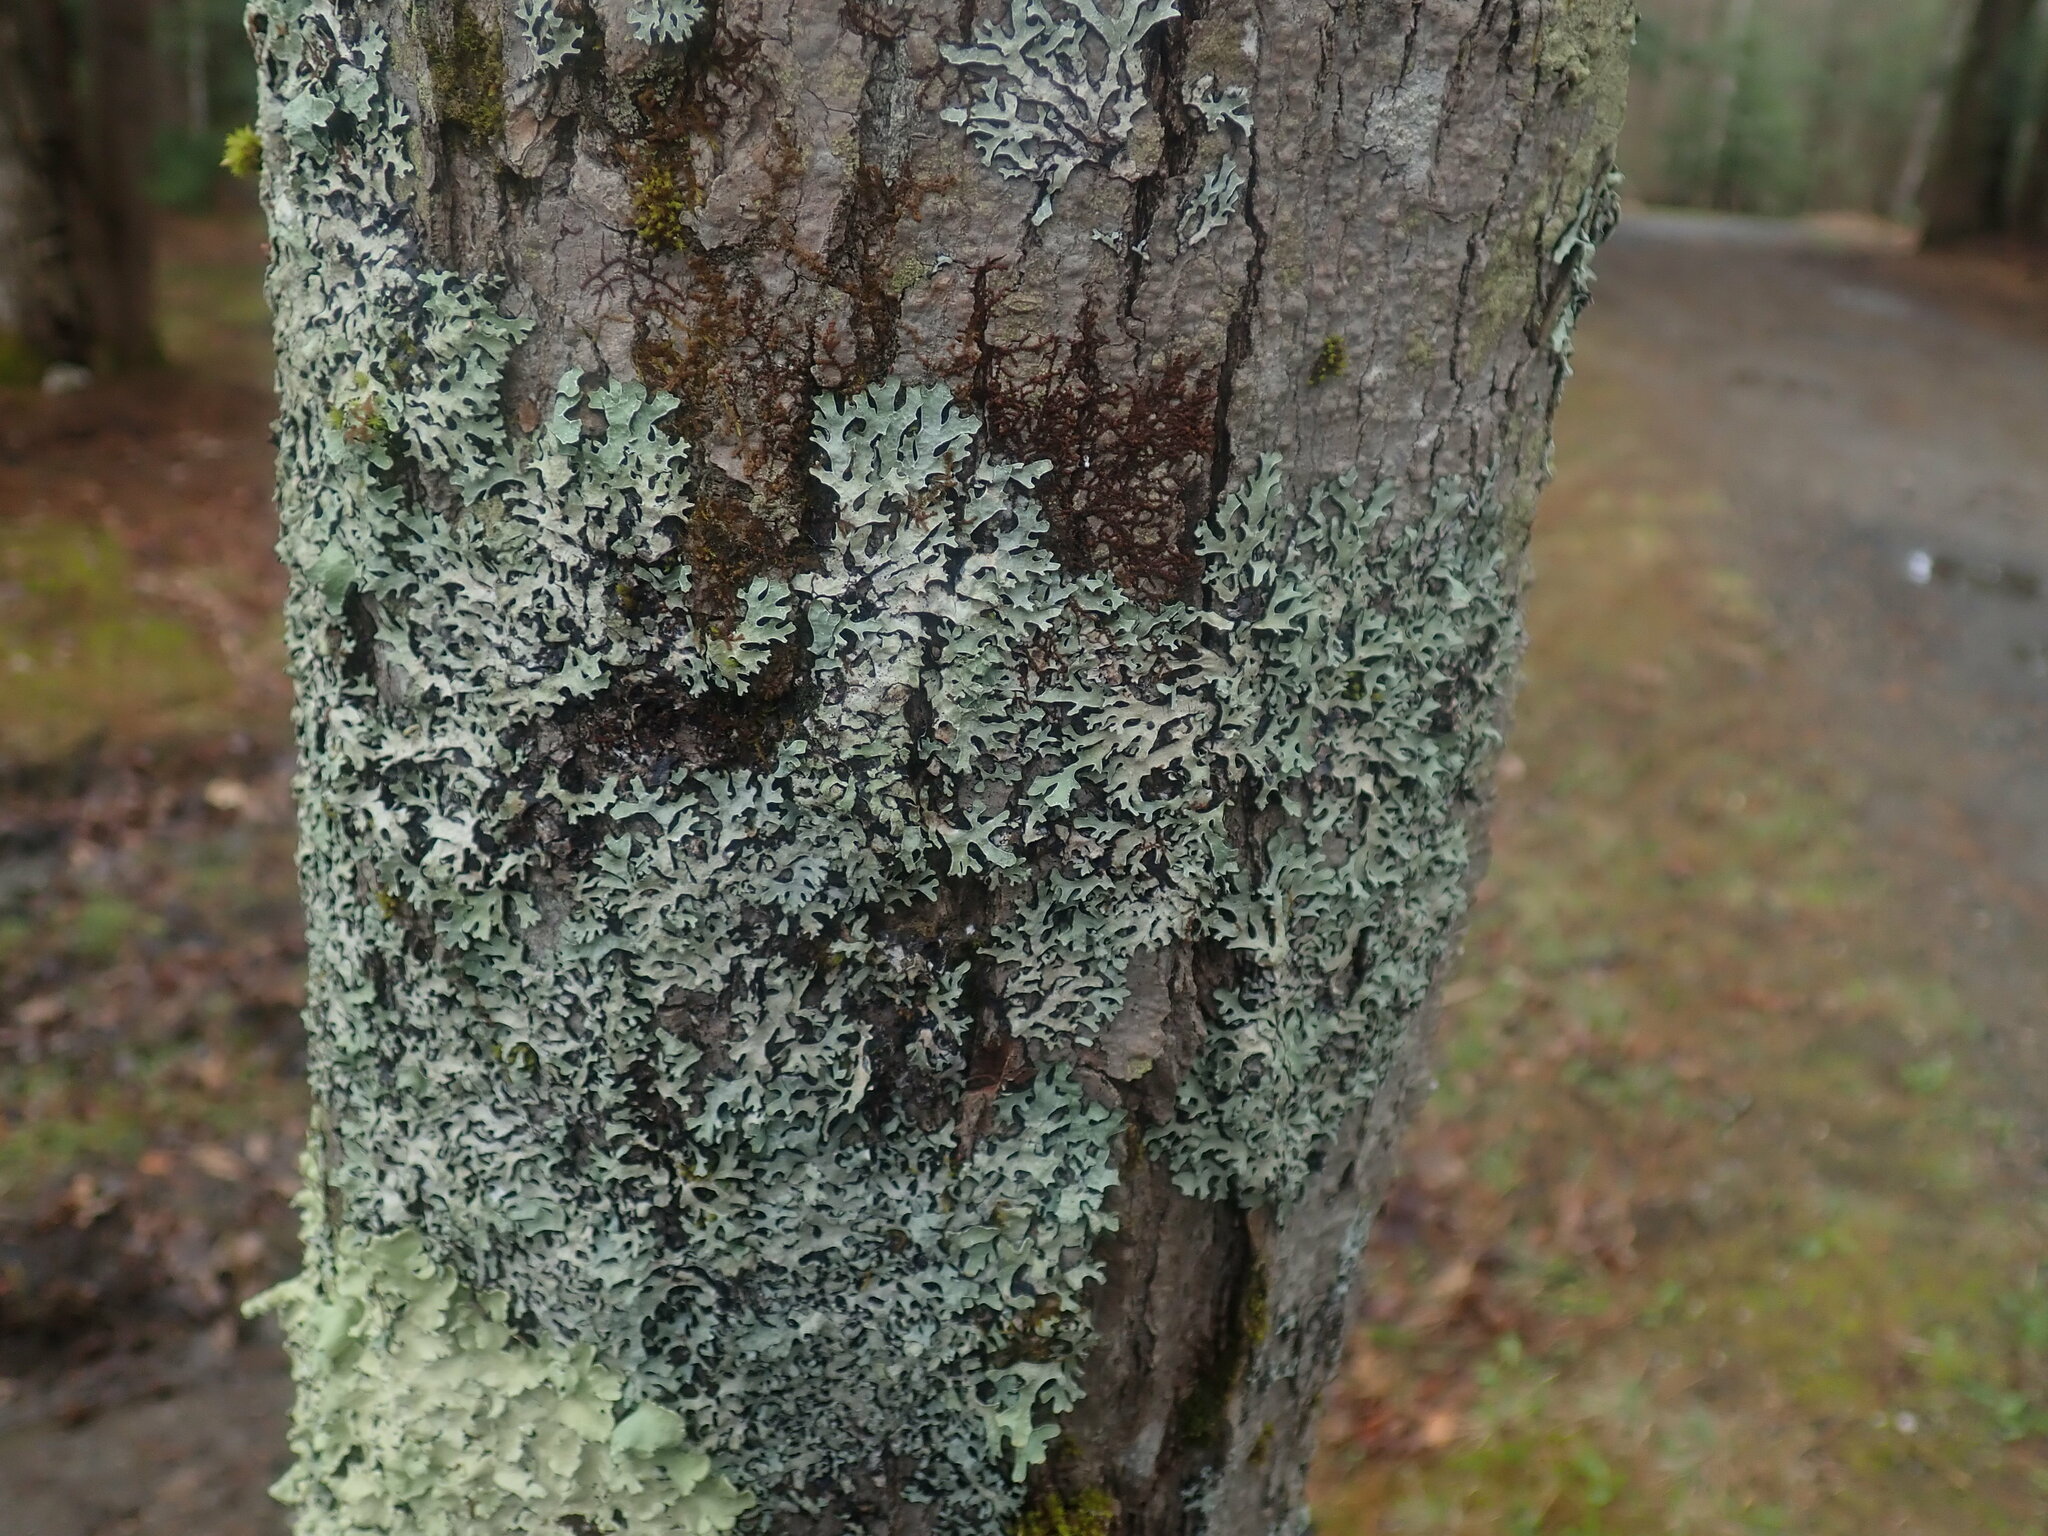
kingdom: Fungi
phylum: Ascomycota
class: Lecanoromycetes
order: Lecanorales
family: Parmeliaceae
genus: Parmelia
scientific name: Parmelia sulcata
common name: Netted shield lichen
